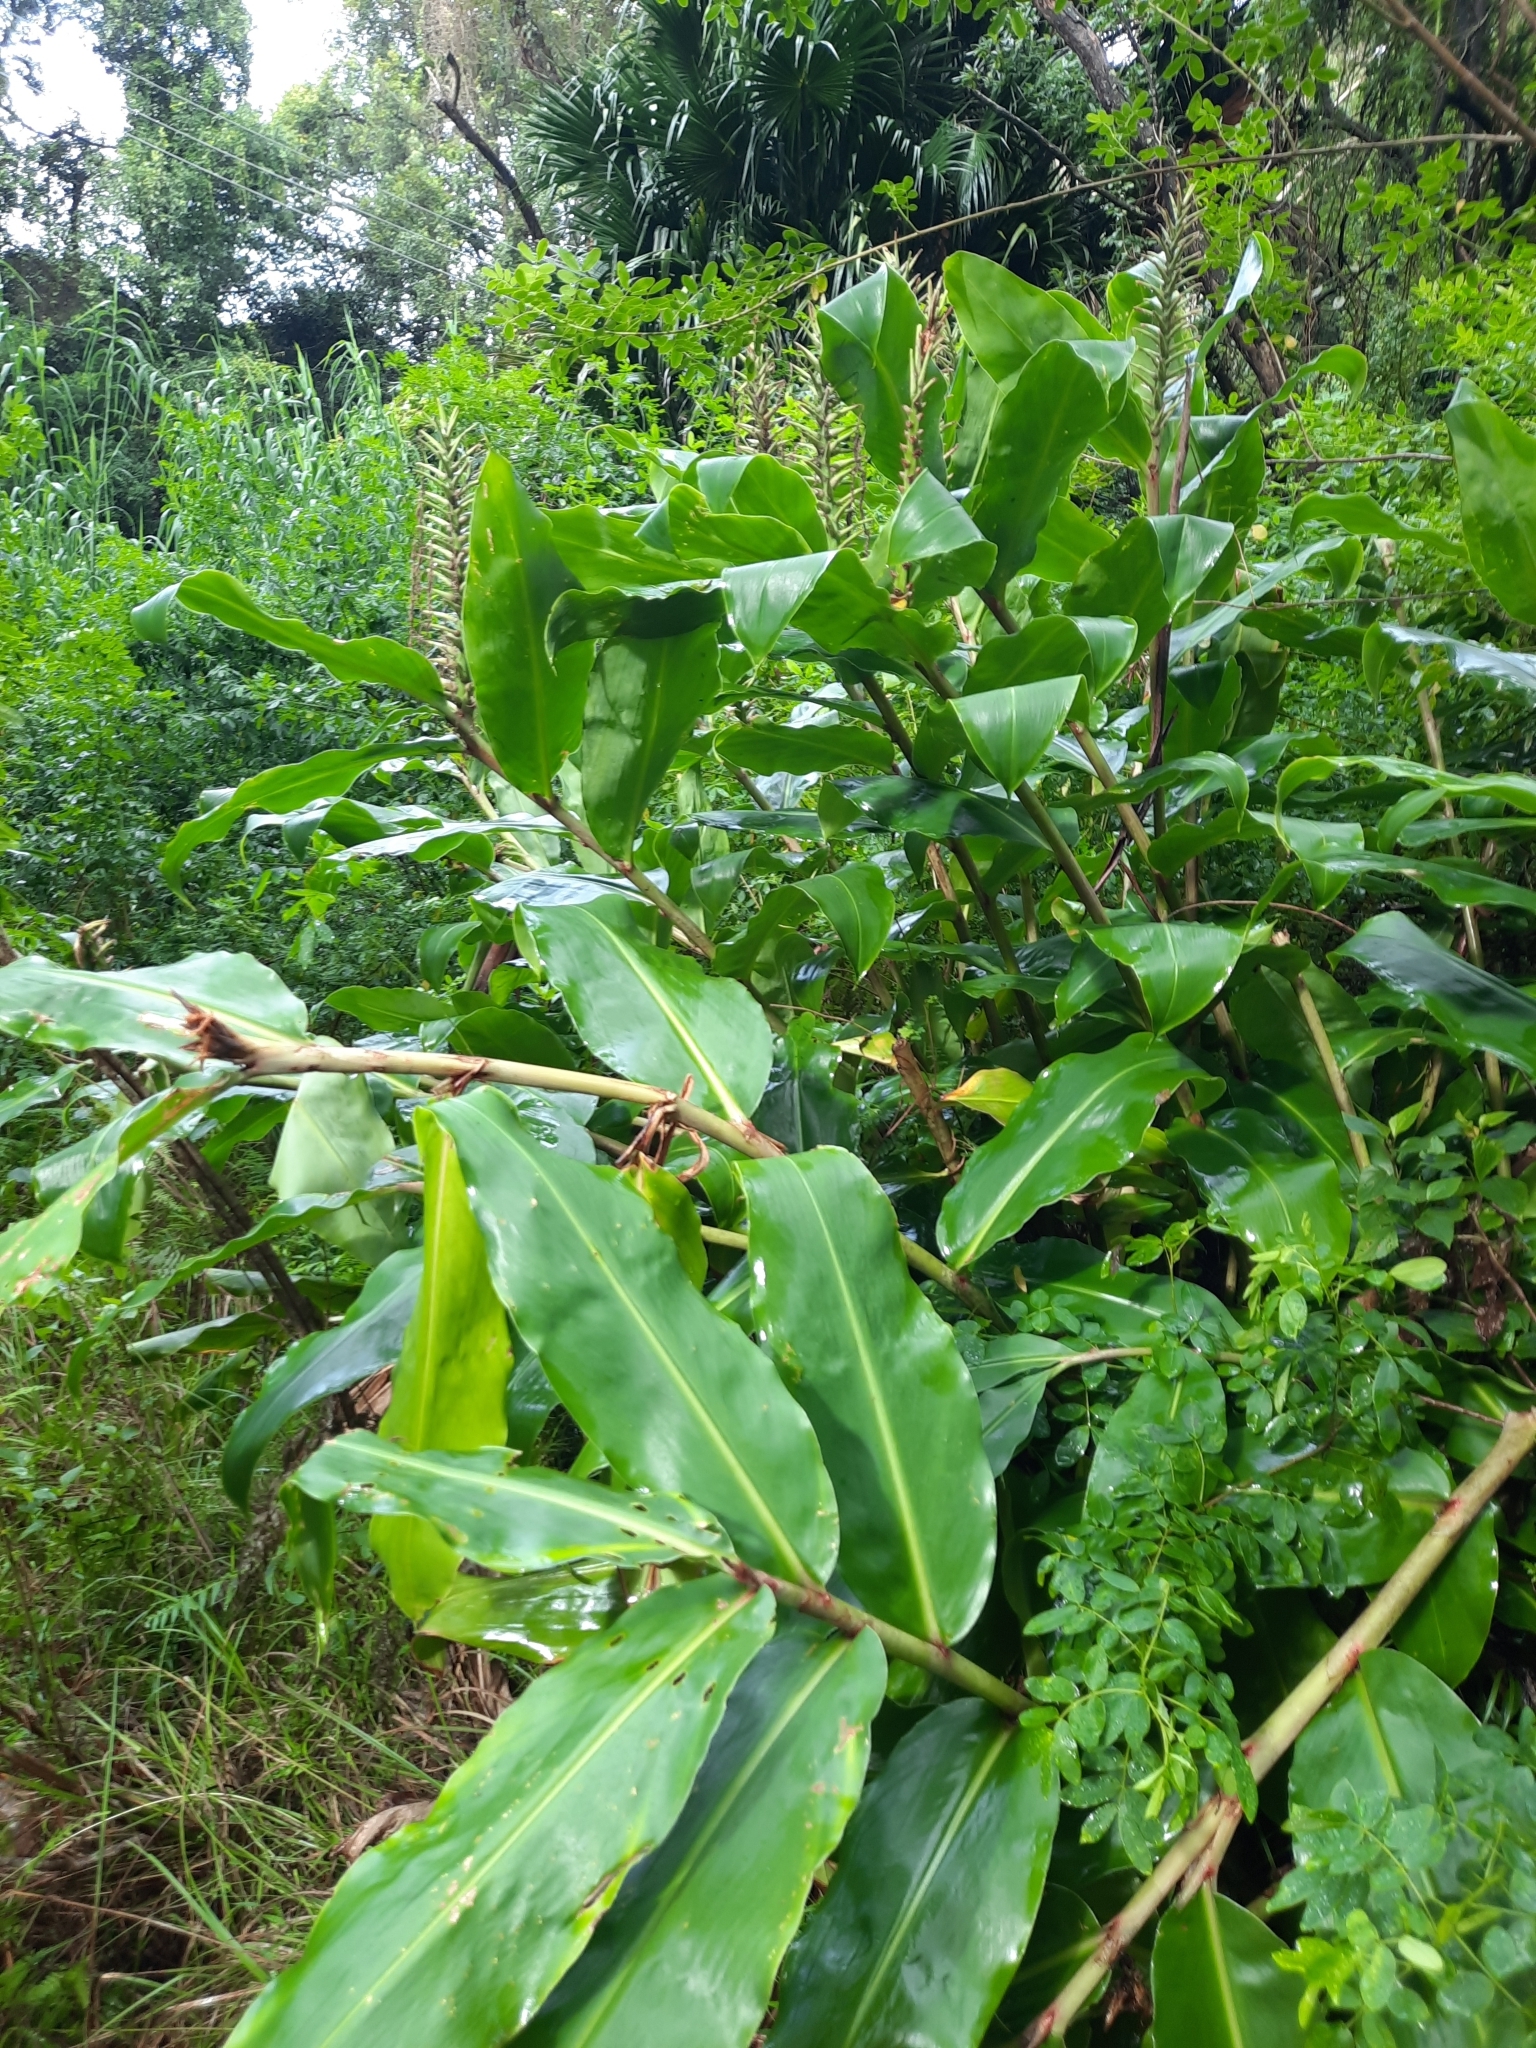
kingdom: Plantae
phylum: Tracheophyta
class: Liliopsida
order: Zingiberales
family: Zingiberaceae
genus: Hedychium
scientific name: Hedychium gardnerianum
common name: Himalayan ginger
